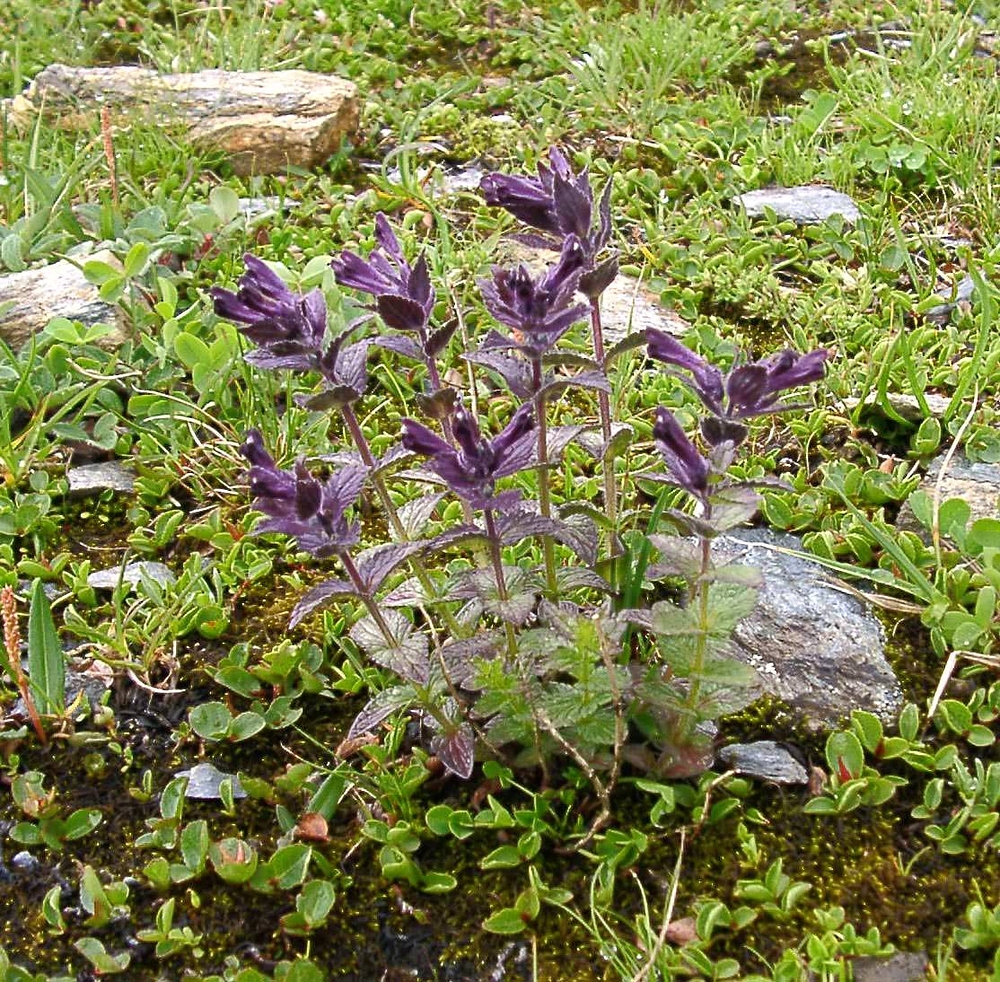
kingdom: Plantae
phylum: Tracheophyta
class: Magnoliopsida
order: Lamiales
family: Orobanchaceae
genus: Bartsia
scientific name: Bartsia alpina
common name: Alpine bartsia
